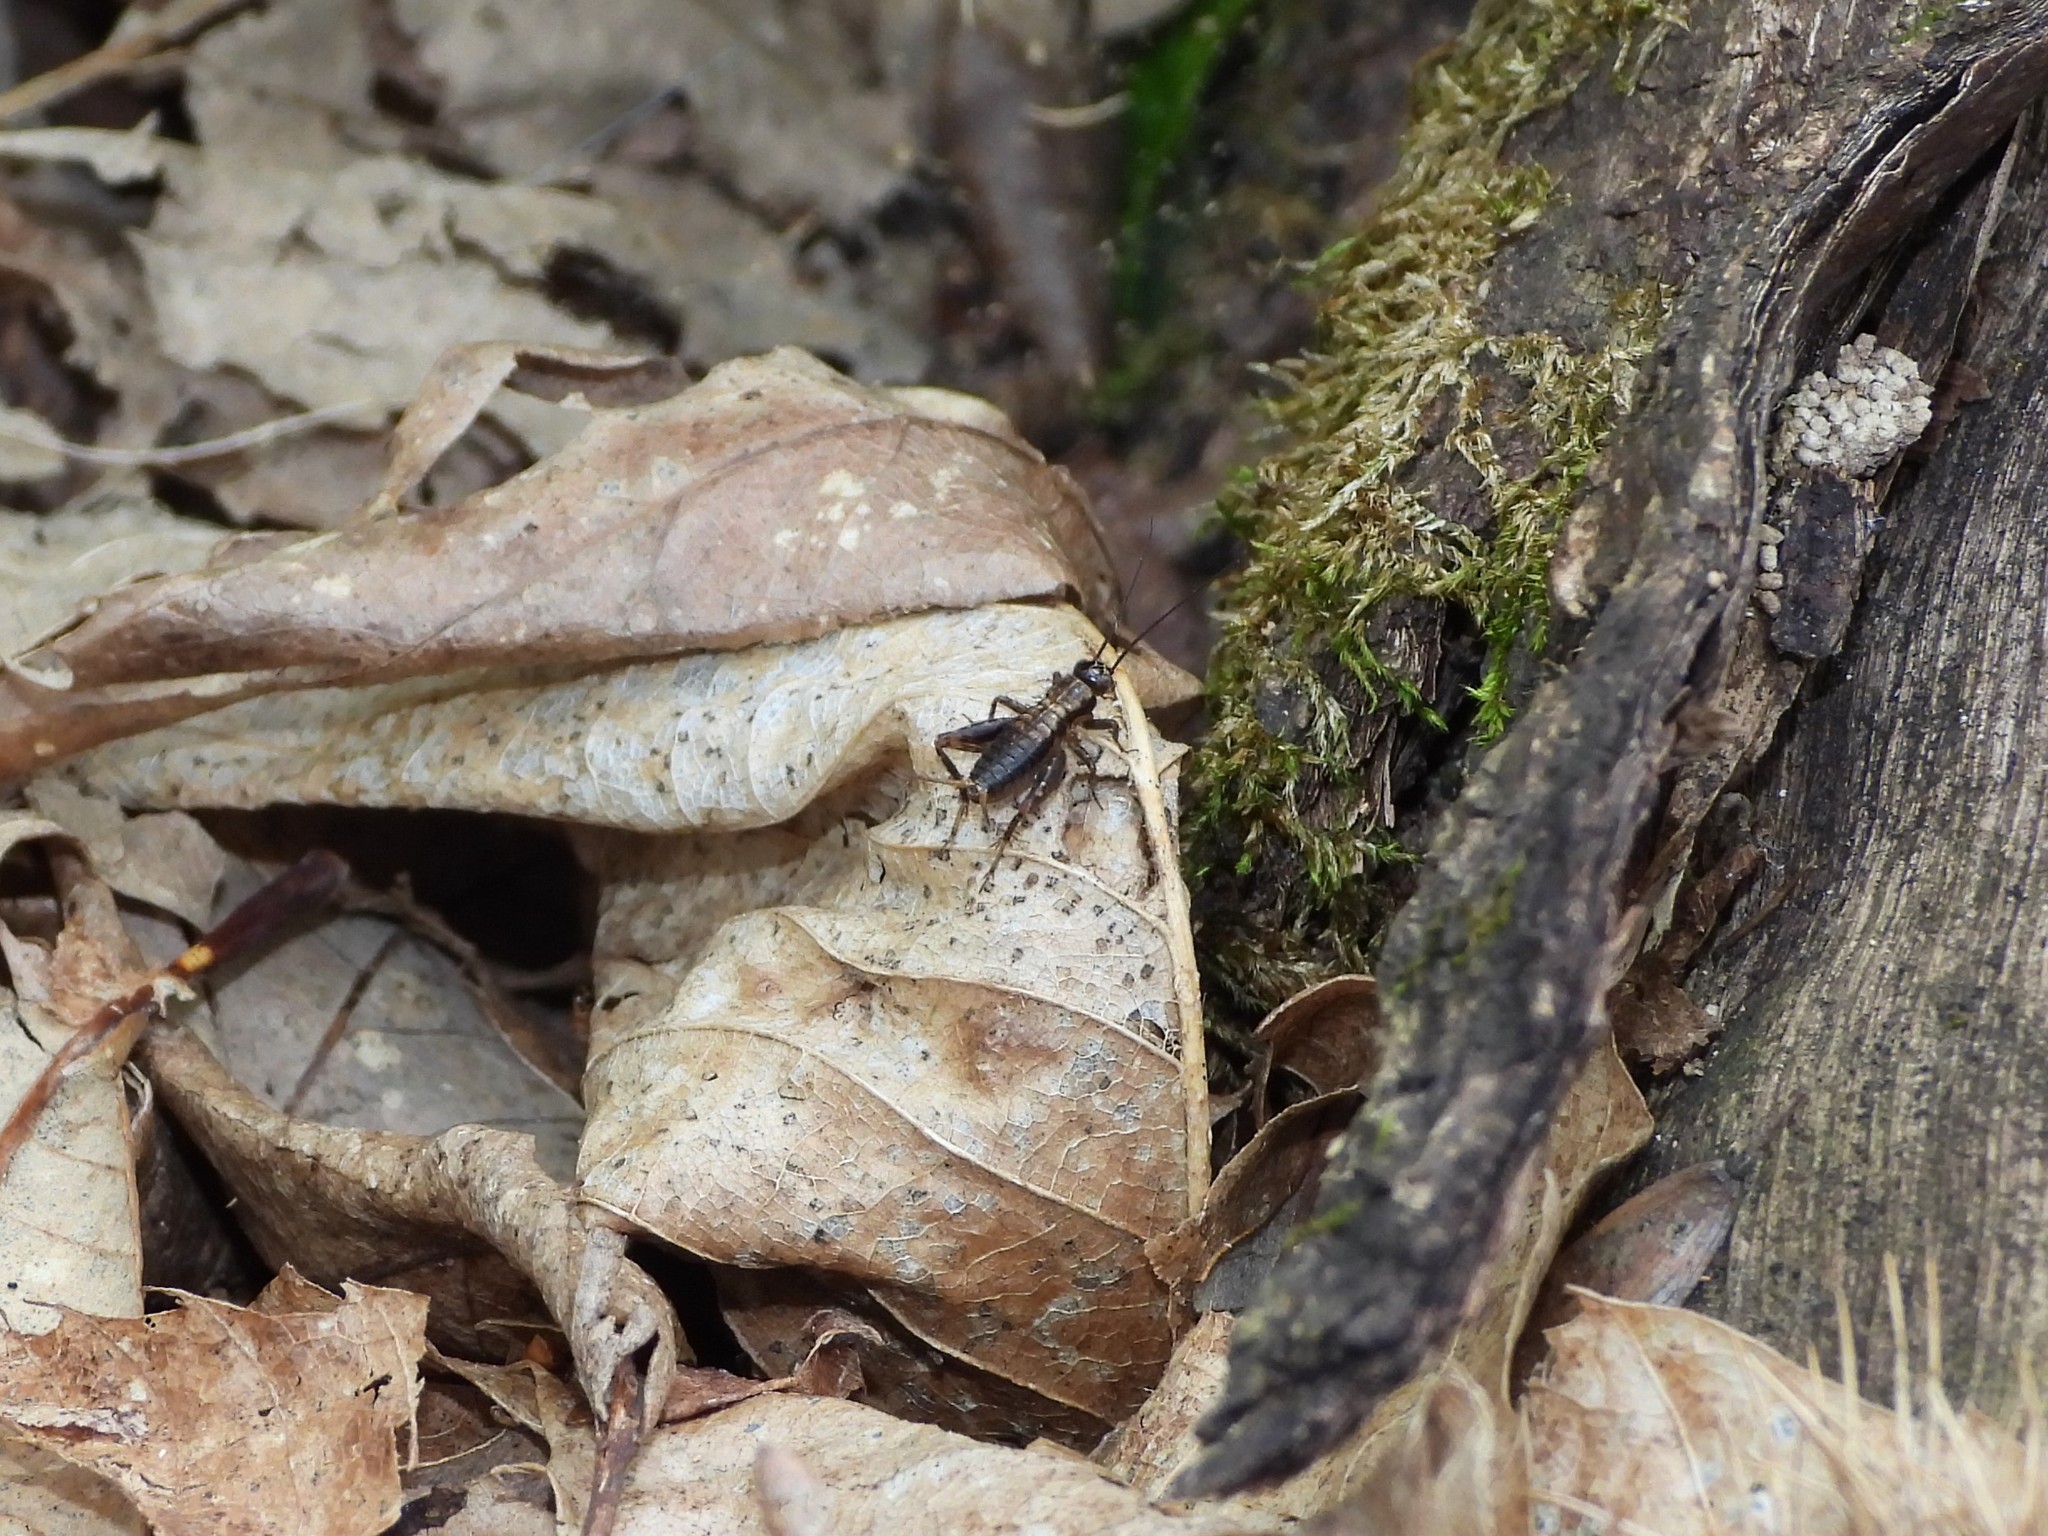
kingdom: Animalia
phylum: Arthropoda
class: Insecta
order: Orthoptera
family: Trigonidiidae
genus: Nemobius
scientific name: Nemobius sylvestris
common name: Wood-cricket
